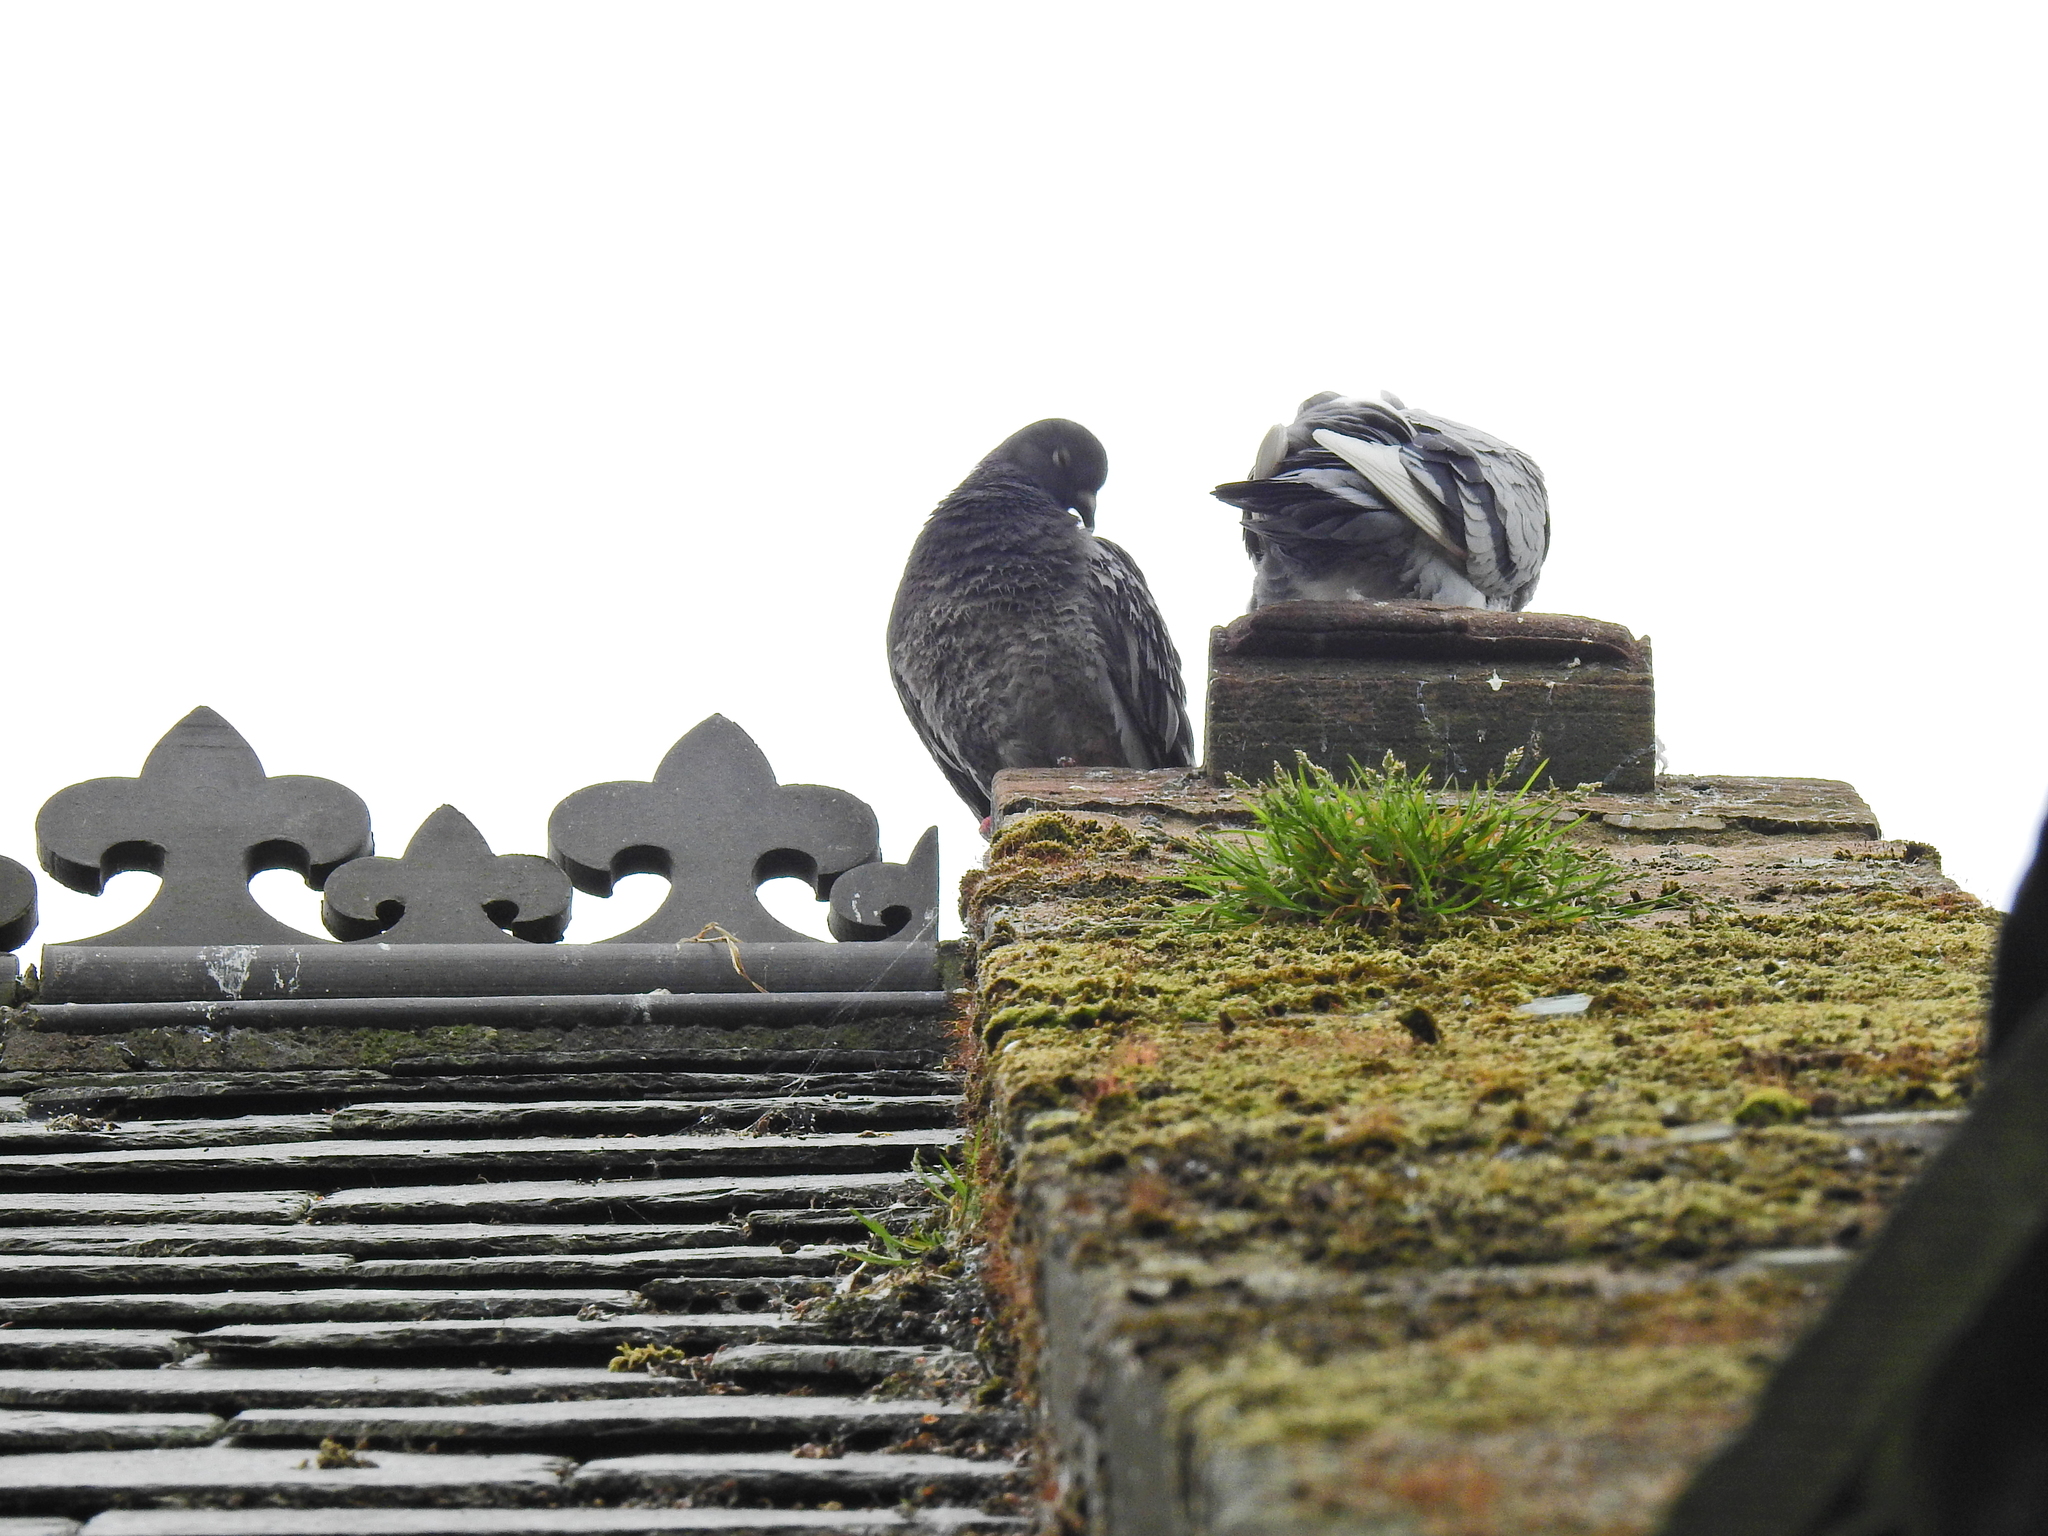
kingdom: Animalia
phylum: Chordata
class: Aves
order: Columbiformes
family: Columbidae
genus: Columba
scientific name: Columba livia
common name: Rock pigeon
